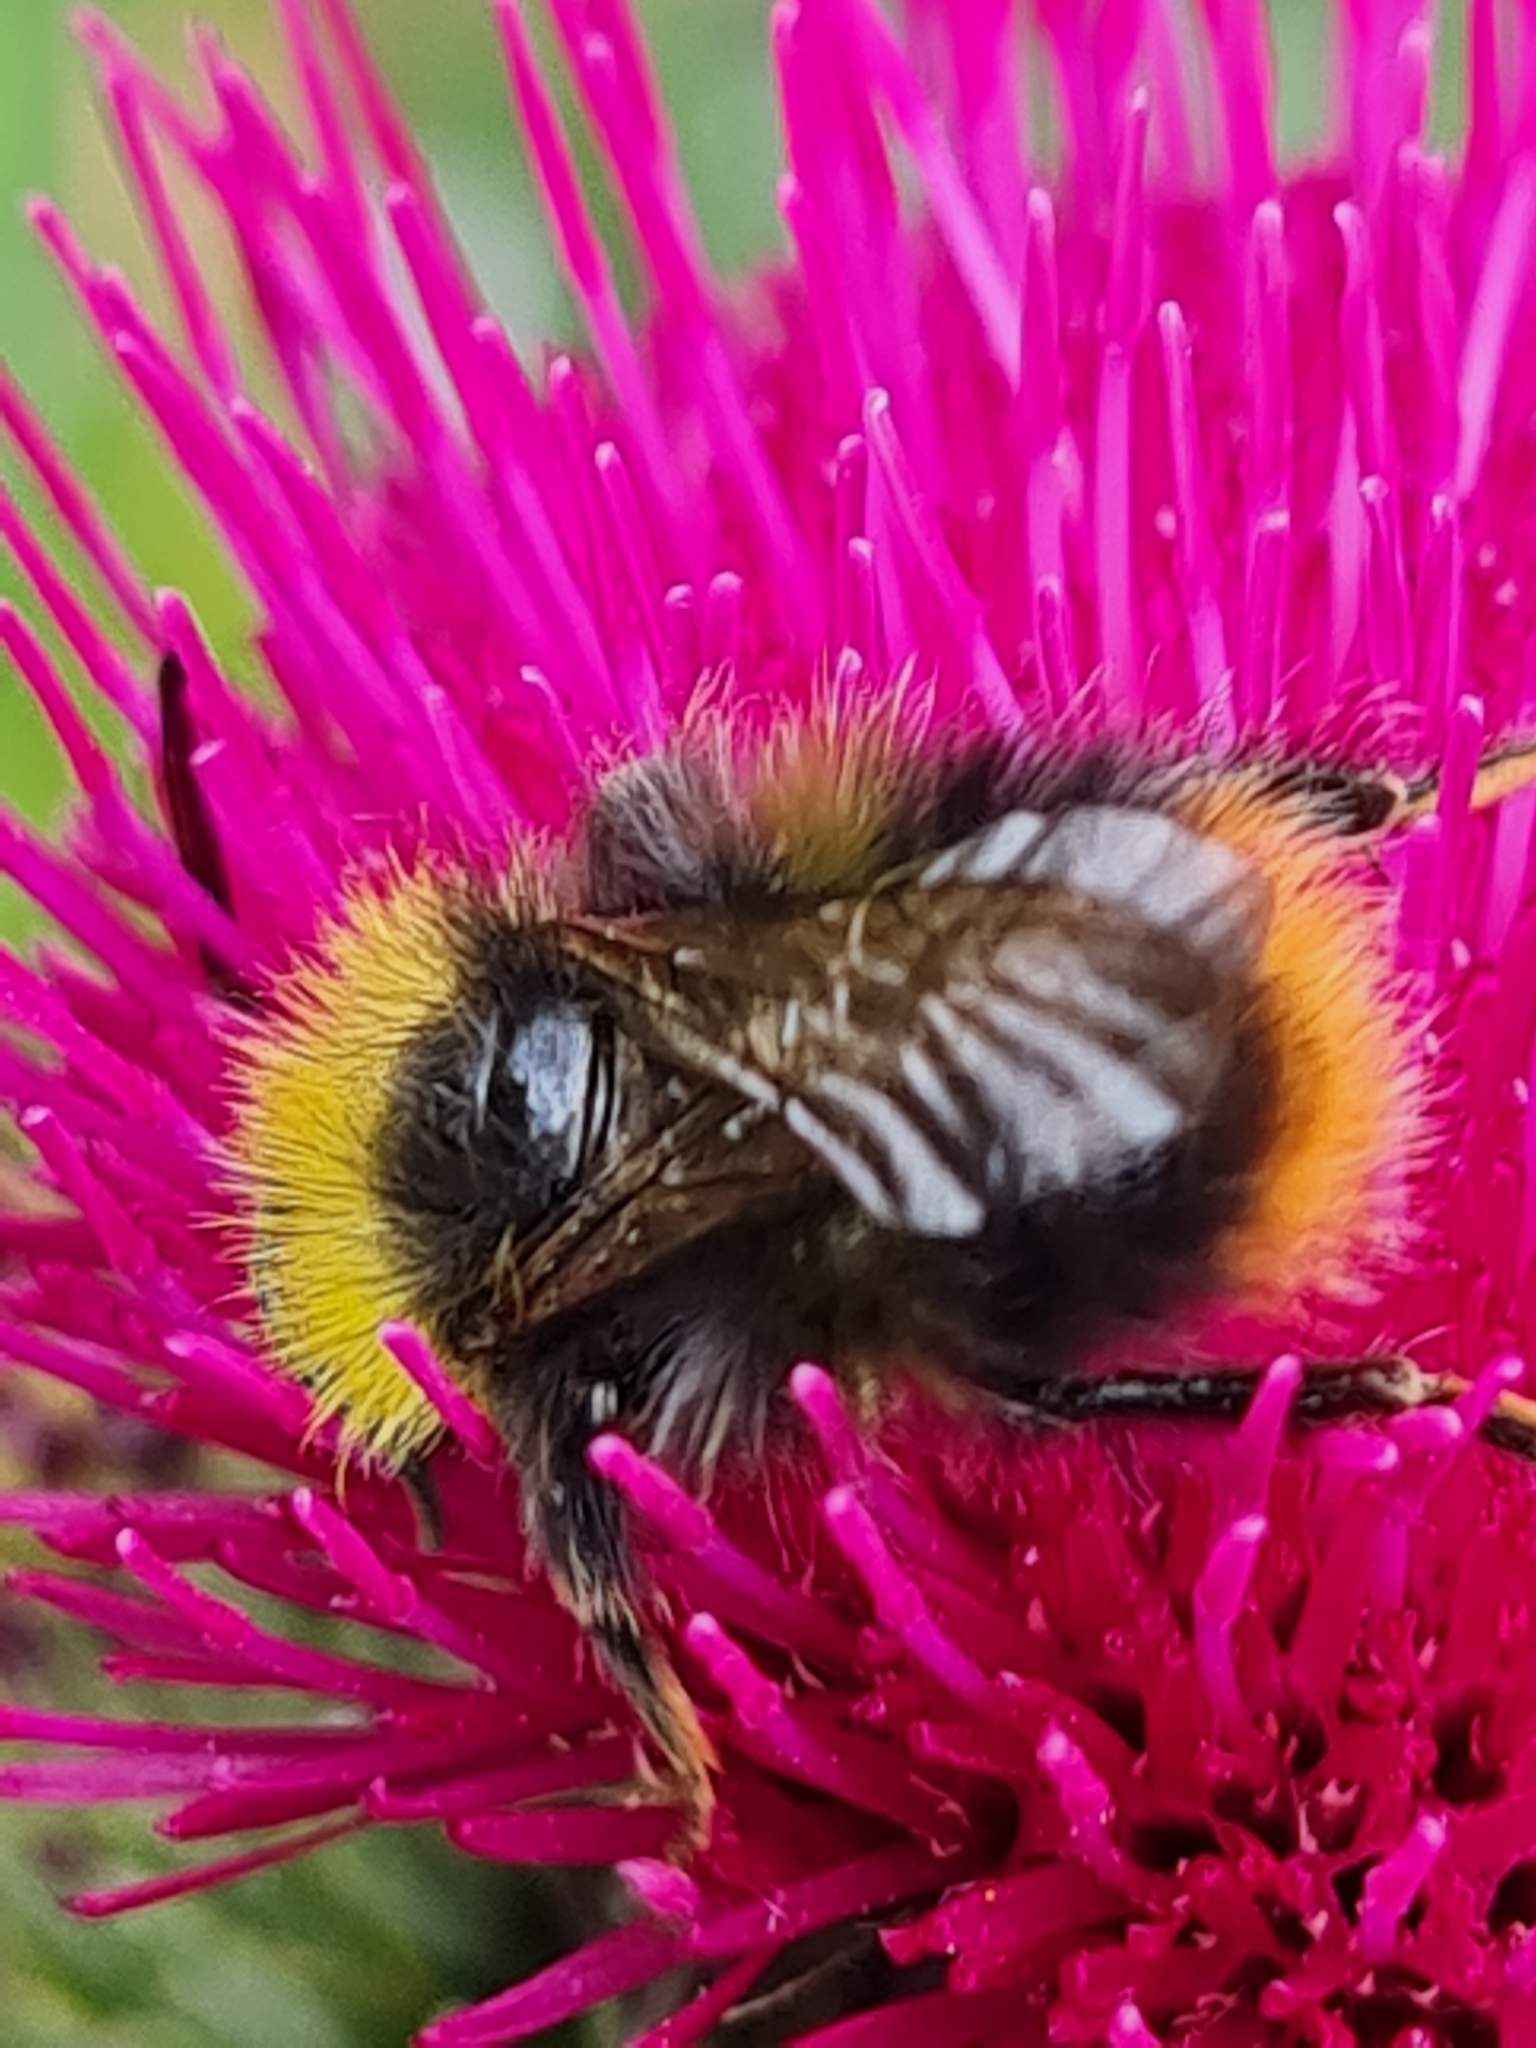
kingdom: Animalia
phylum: Arthropoda
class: Insecta
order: Hymenoptera
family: Apidae
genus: Bombus
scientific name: Bombus pratorum
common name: Early humble-bee
